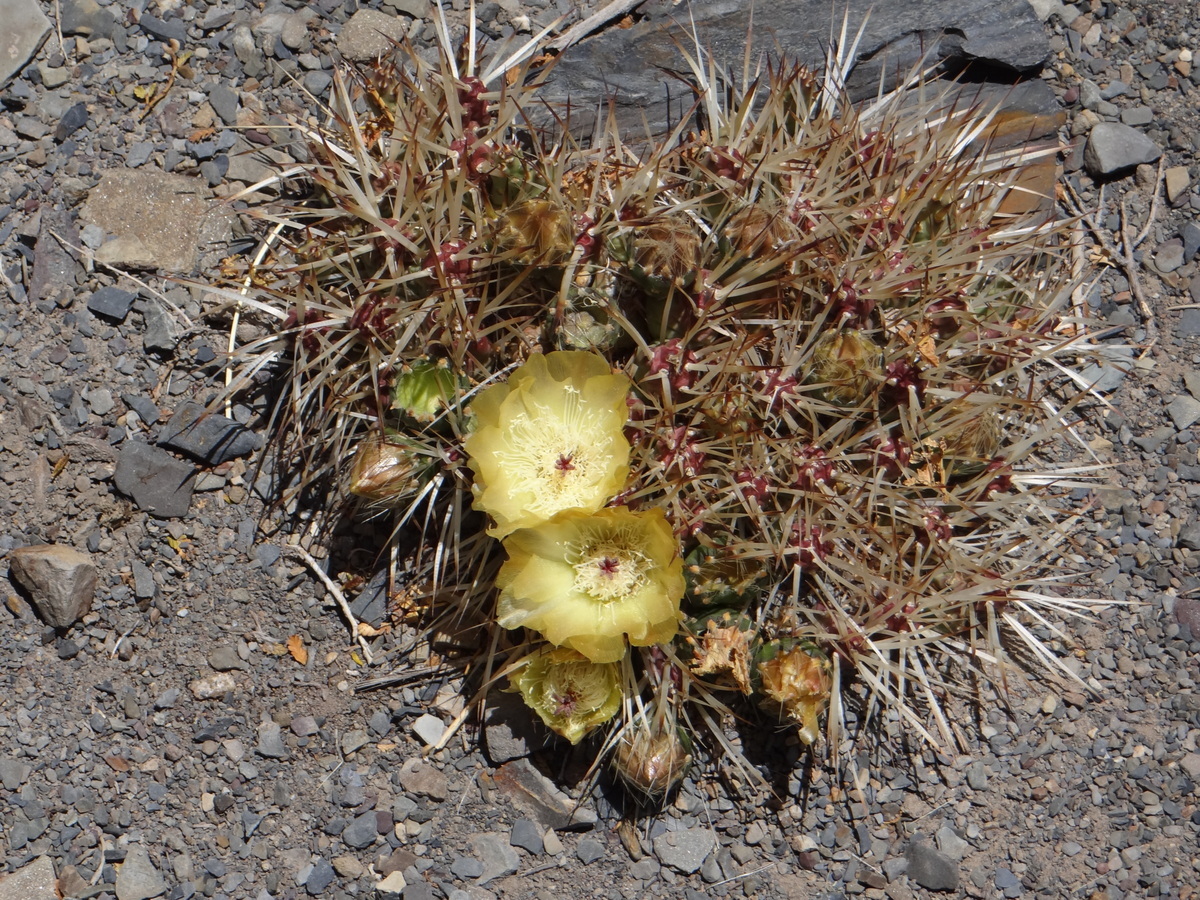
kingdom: Plantae
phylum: Tracheophyta
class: Magnoliopsida
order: Caryophyllales
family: Cactaceae
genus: Maihueniopsis
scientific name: Maihueniopsis glomerata
